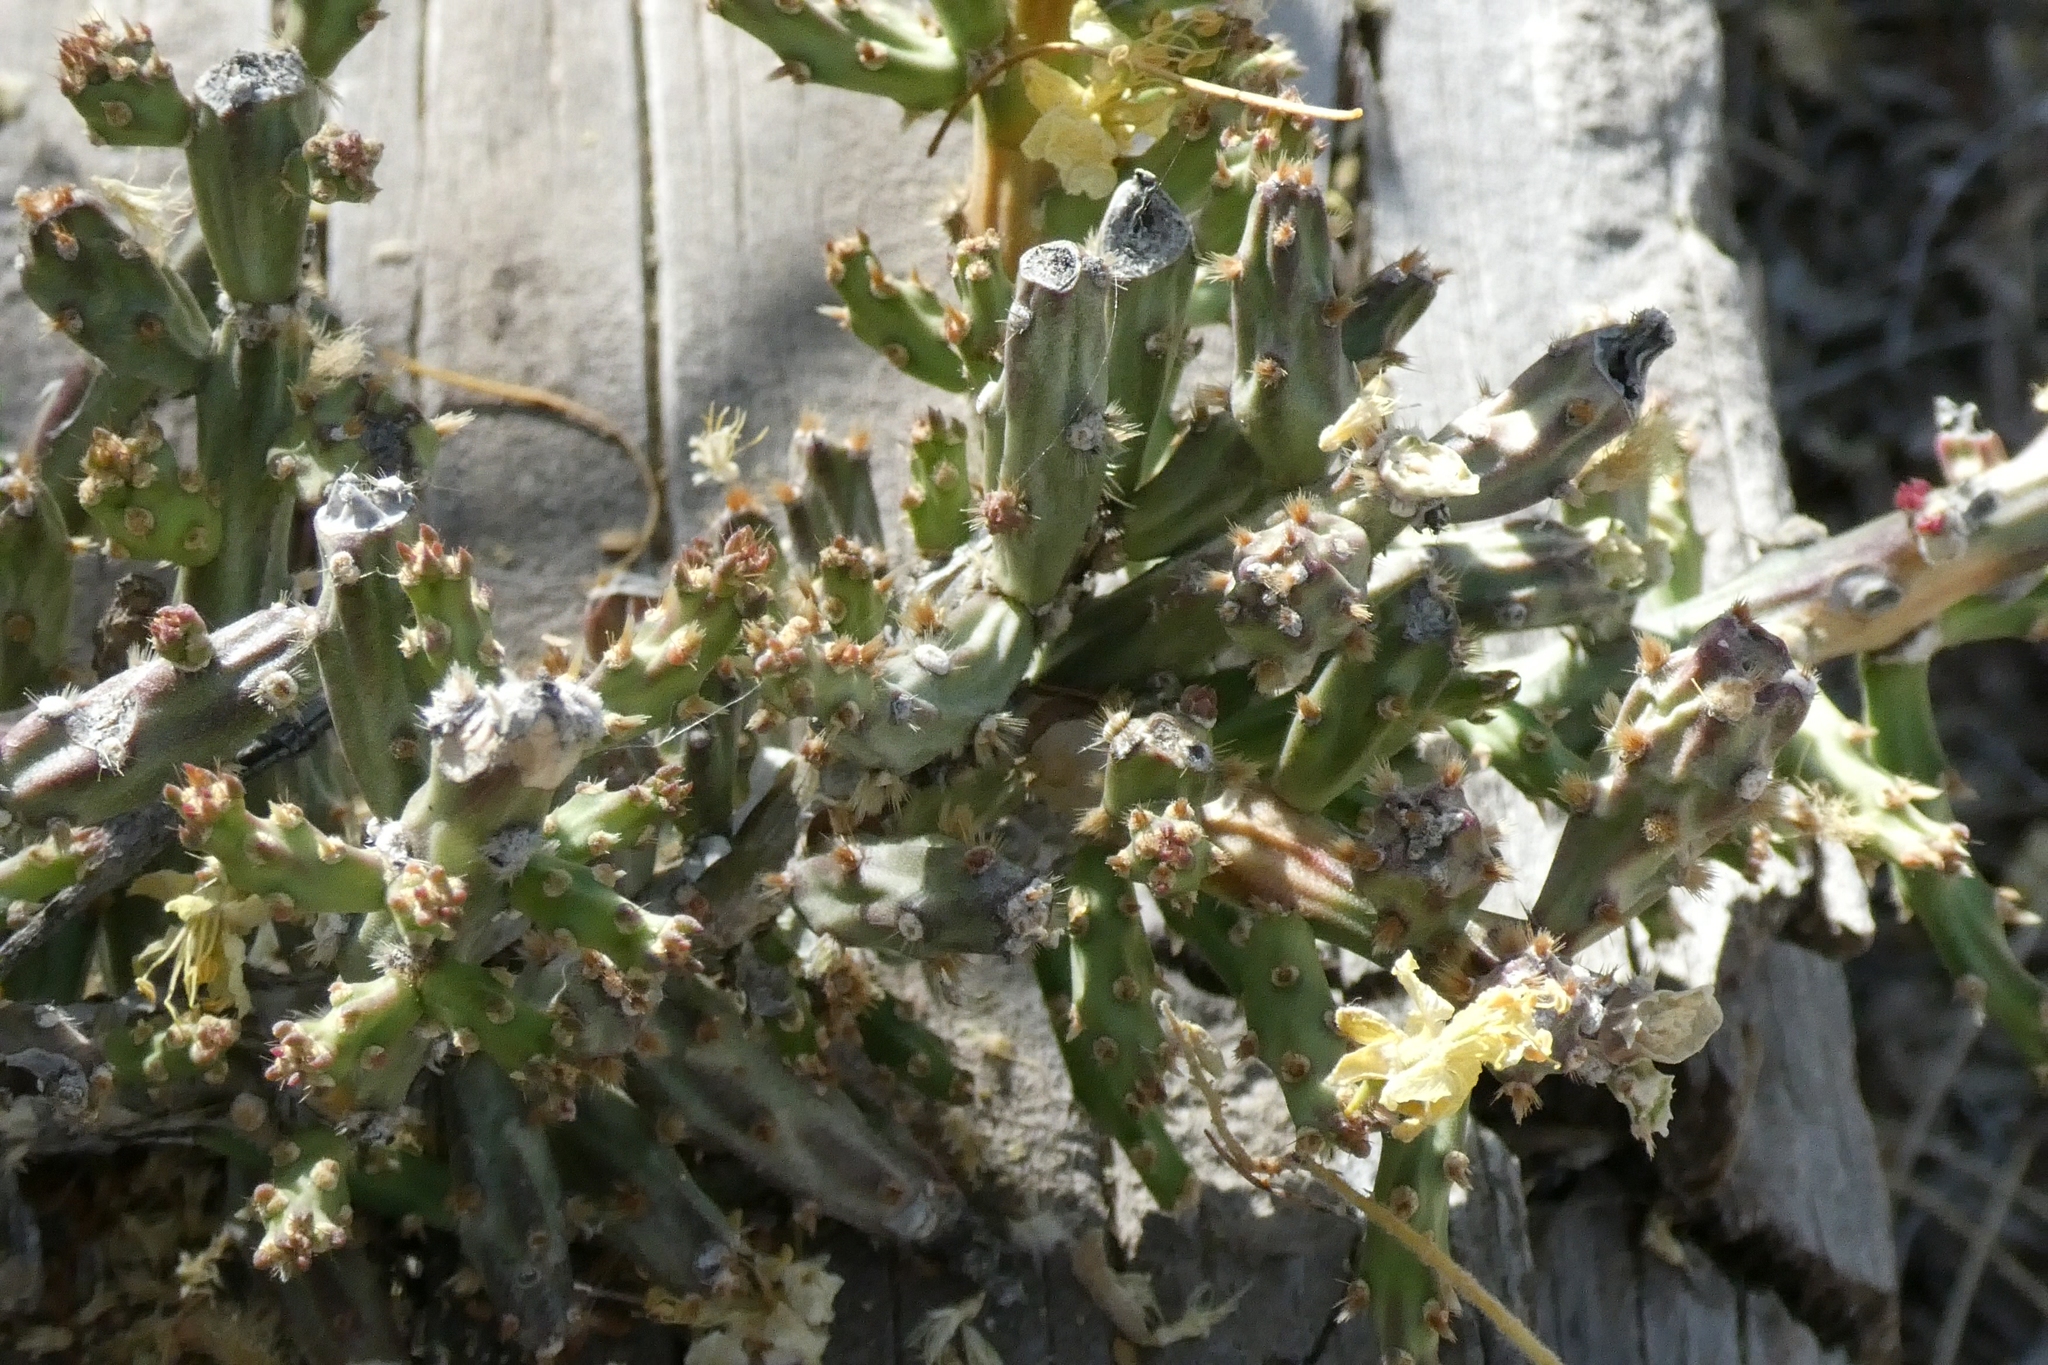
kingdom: Plantae
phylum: Tracheophyta
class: Magnoliopsida
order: Caryophyllales
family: Cactaceae
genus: Cylindropuntia
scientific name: Cylindropuntia leptocaulis
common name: Christmas cactus
